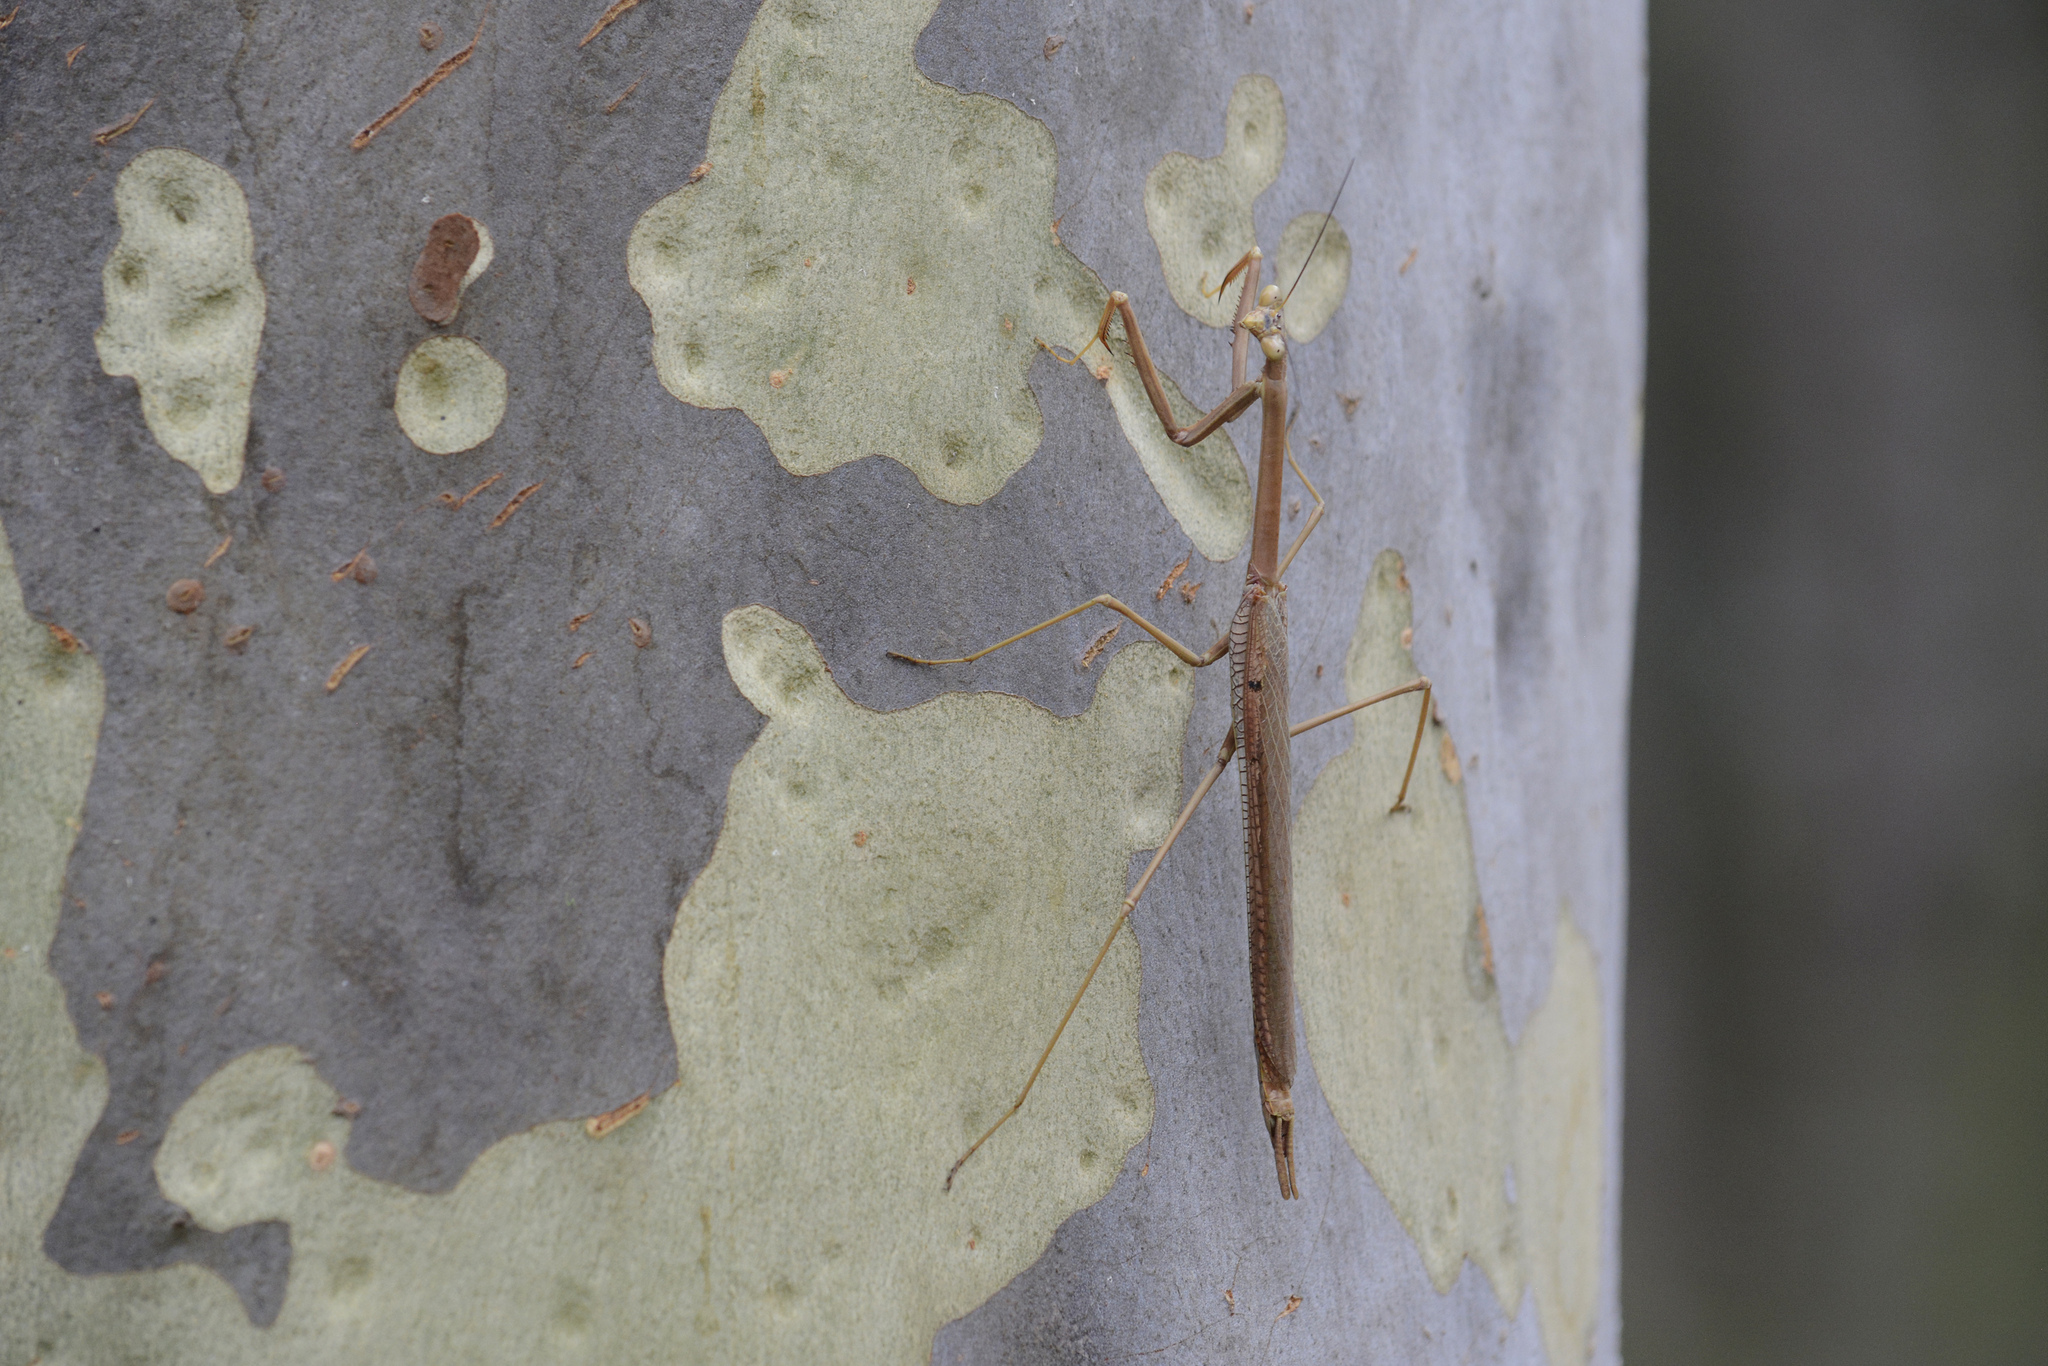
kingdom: Animalia
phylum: Arthropoda
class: Insecta
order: Mantodea
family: Mantidae
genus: Archimantis
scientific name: Archimantis latistyla
